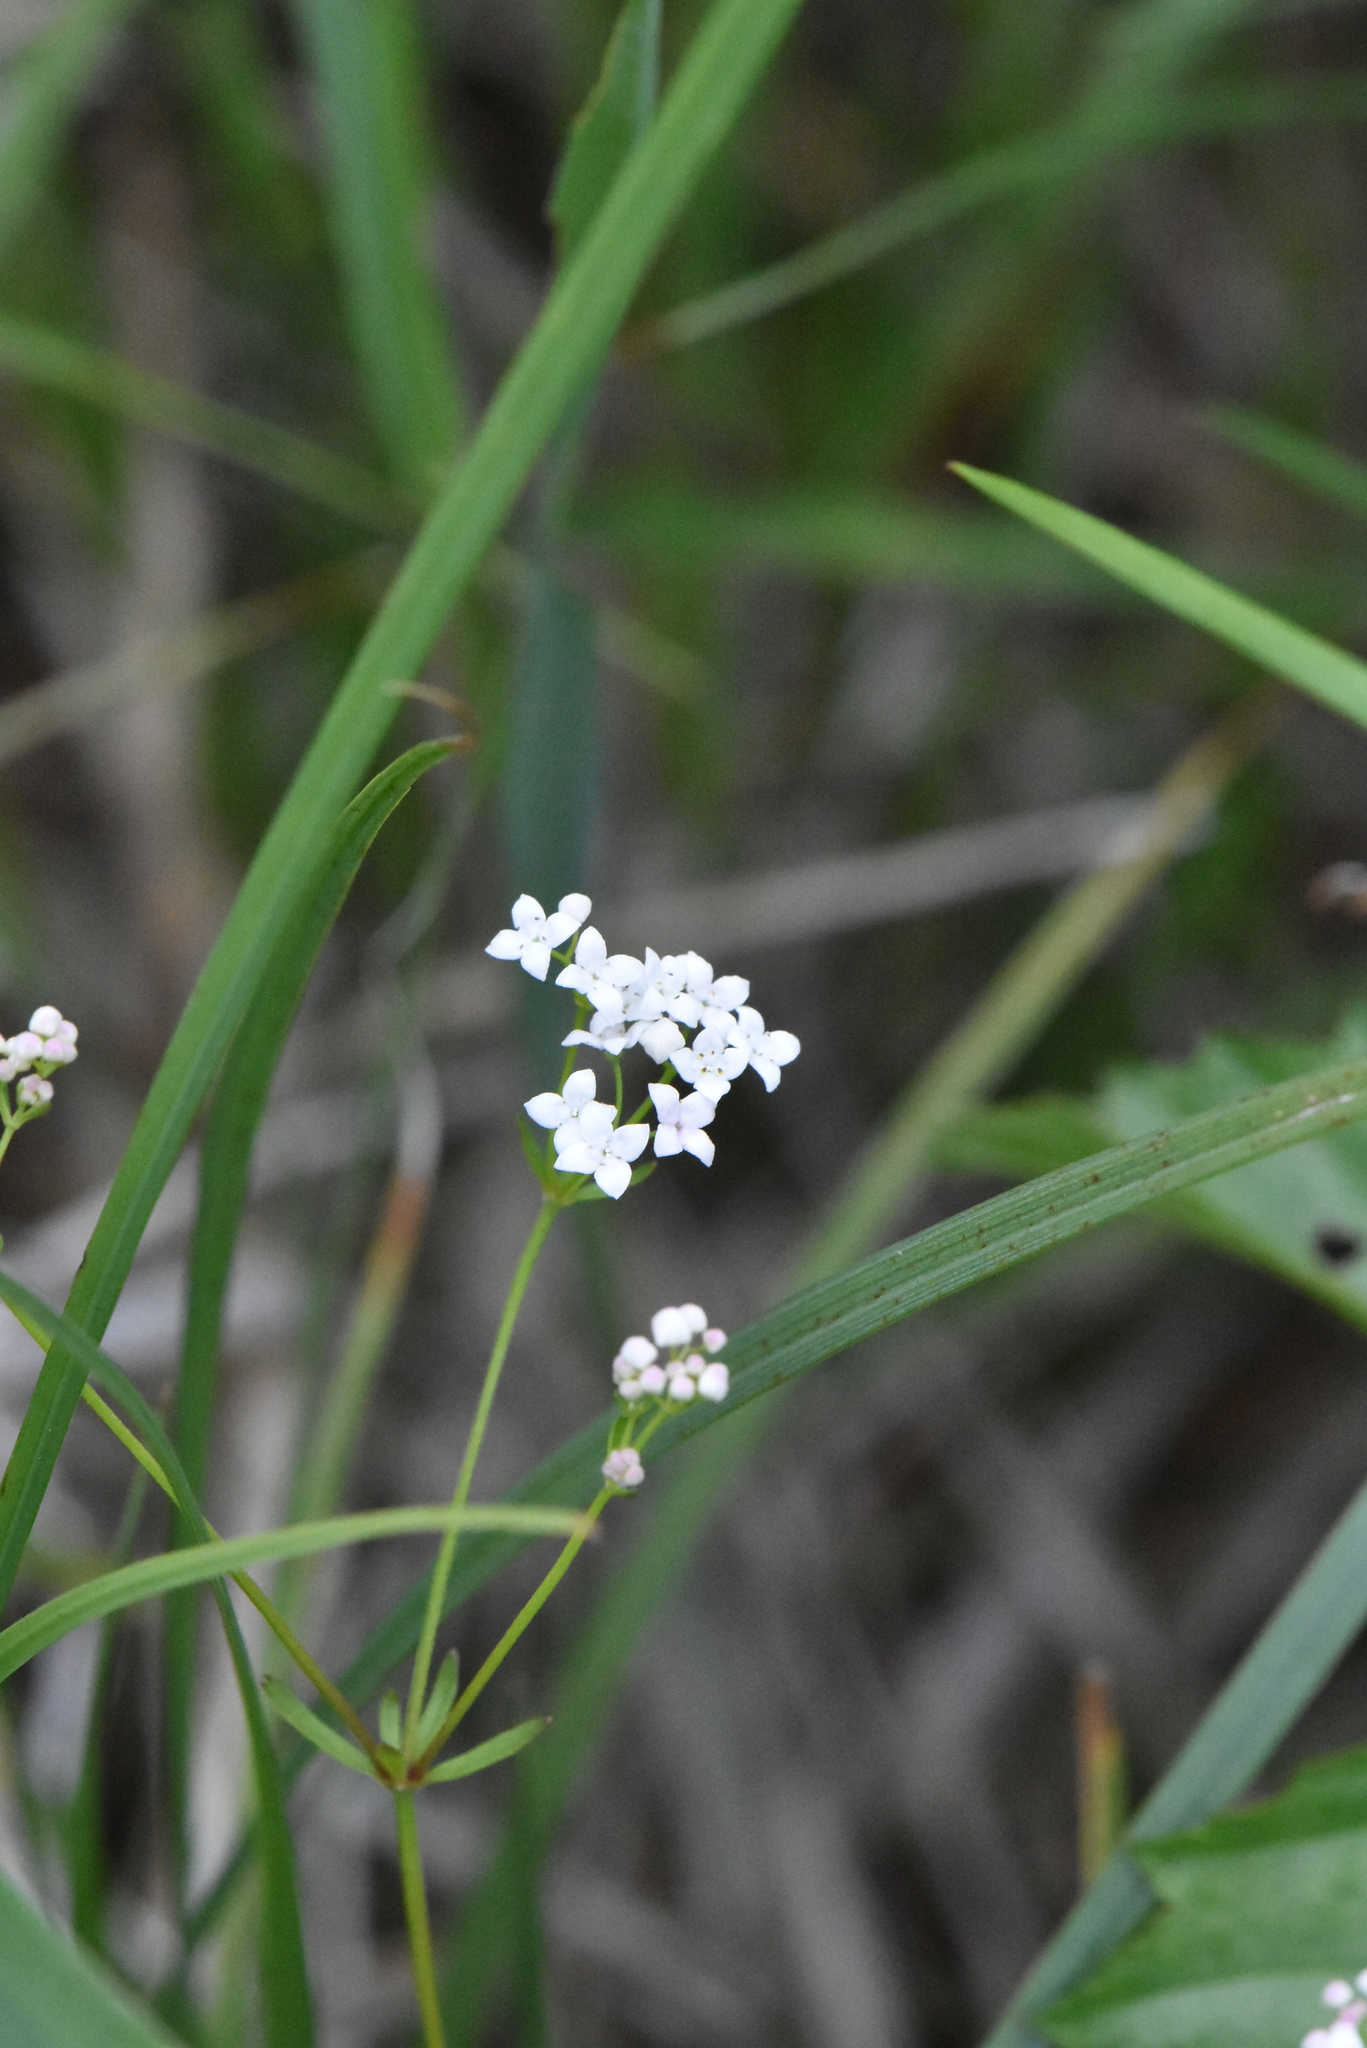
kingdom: Plantae
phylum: Tracheophyta
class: Magnoliopsida
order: Gentianales
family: Rubiaceae
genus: Galium
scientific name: Galium palustre
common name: Common marsh-bedstraw
